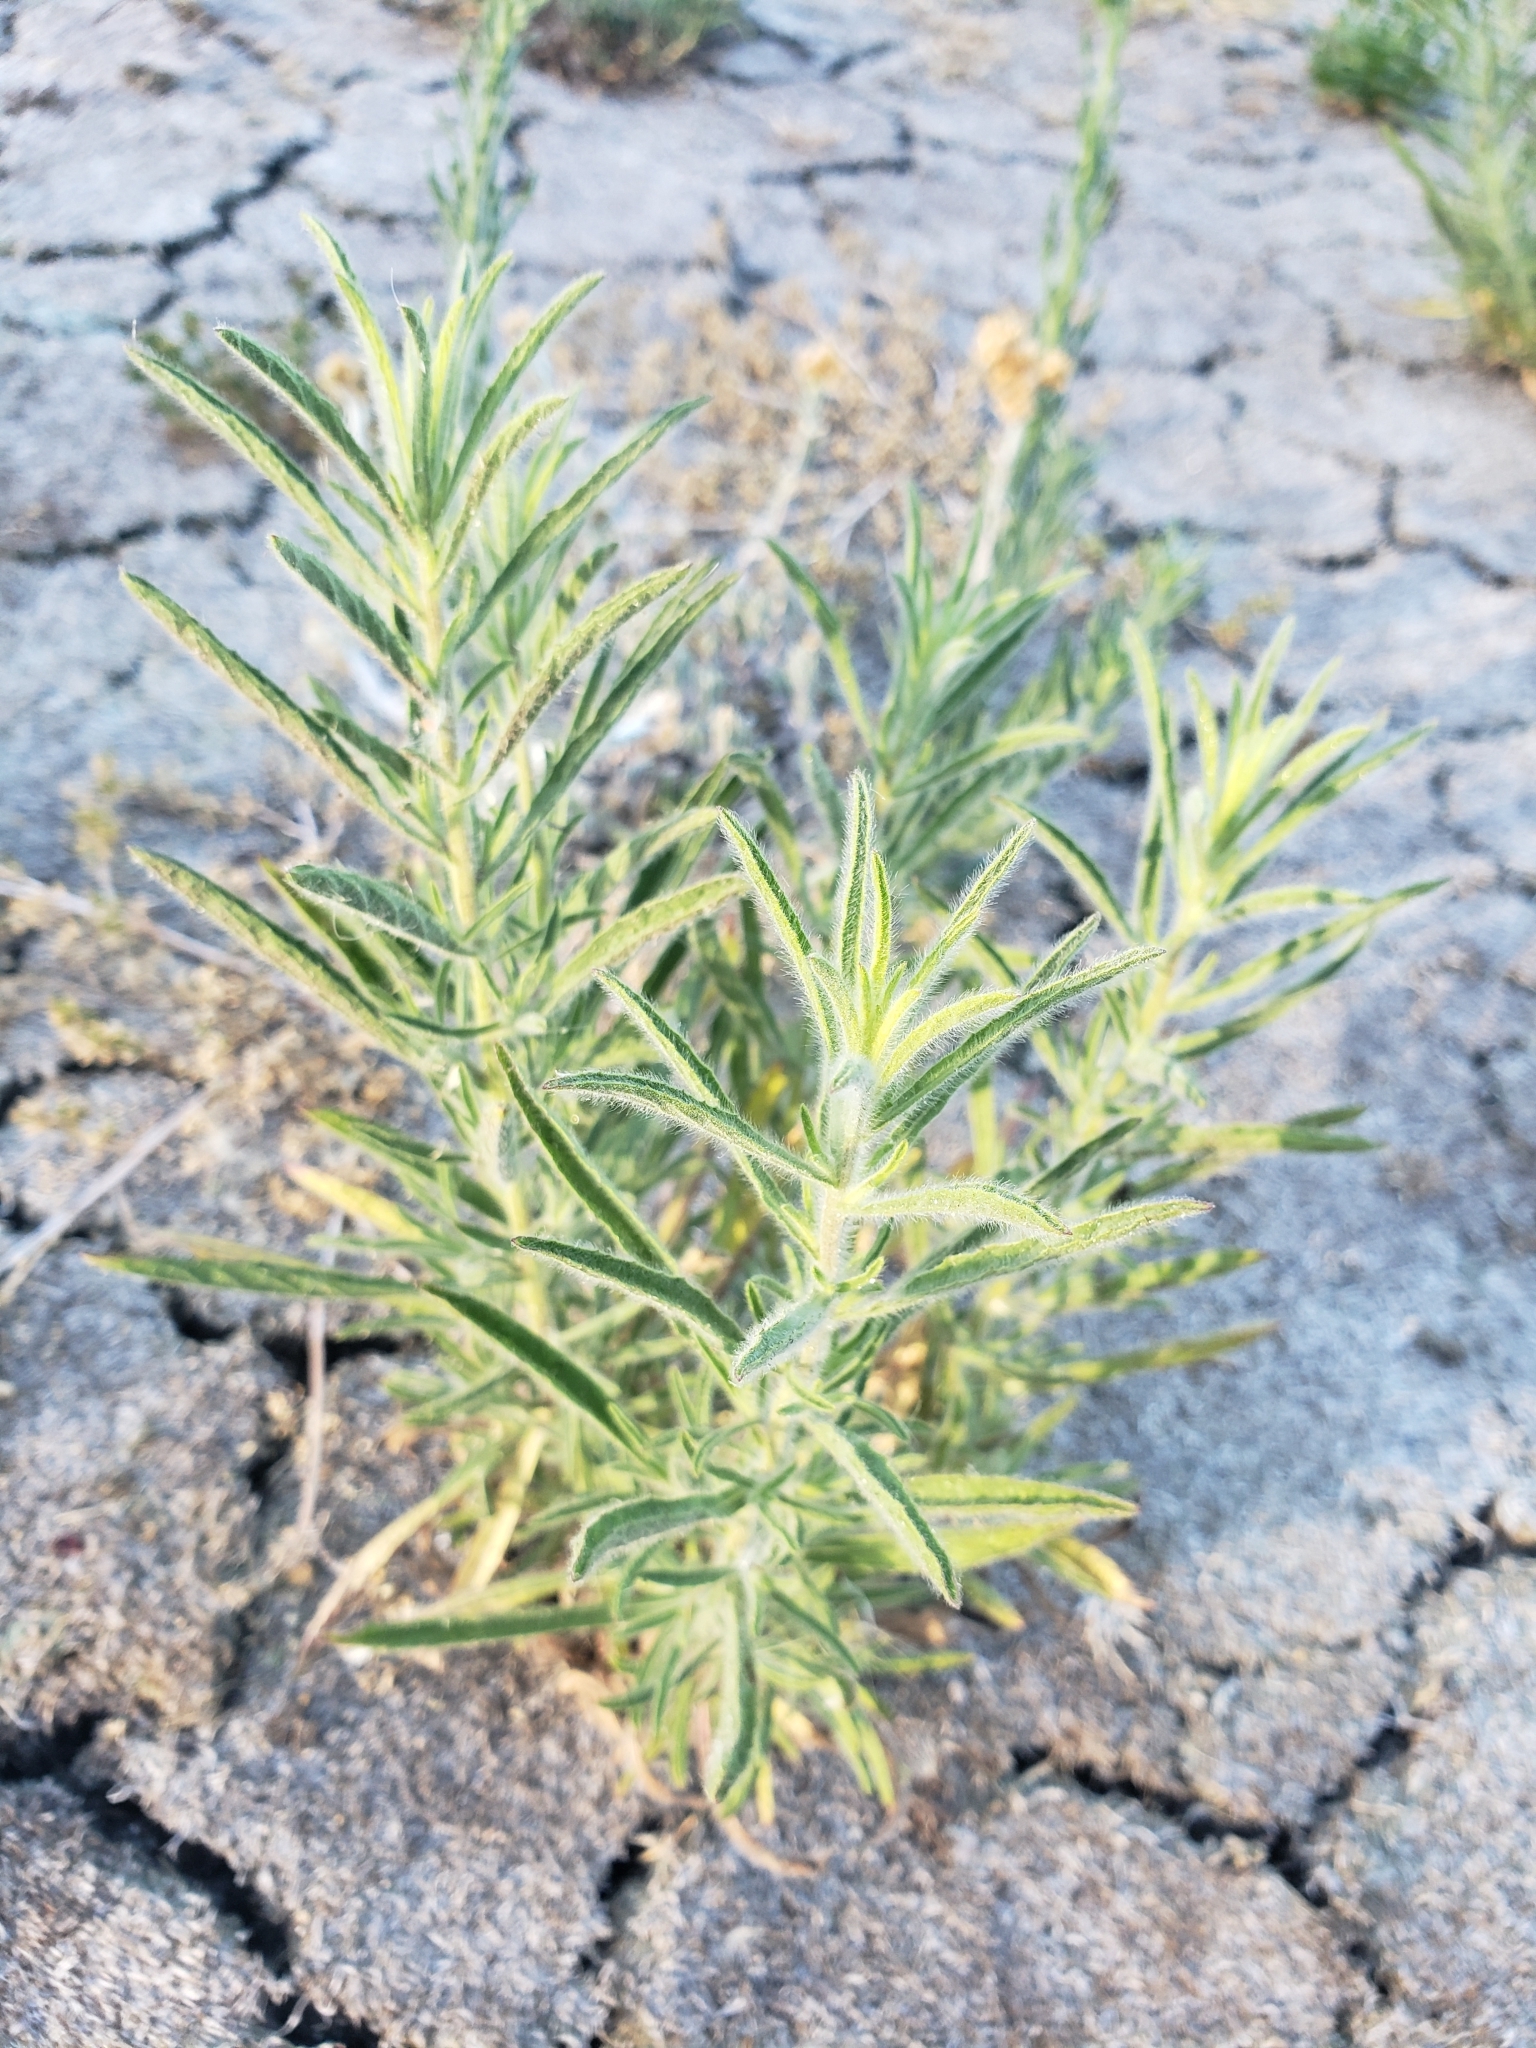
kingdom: Plantae
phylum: Tracheophyta
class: Magnoliopsida
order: Asterales
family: Asteraceae
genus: Dittrichia
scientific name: Dittrichia graveolens
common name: Stinking fleabane
